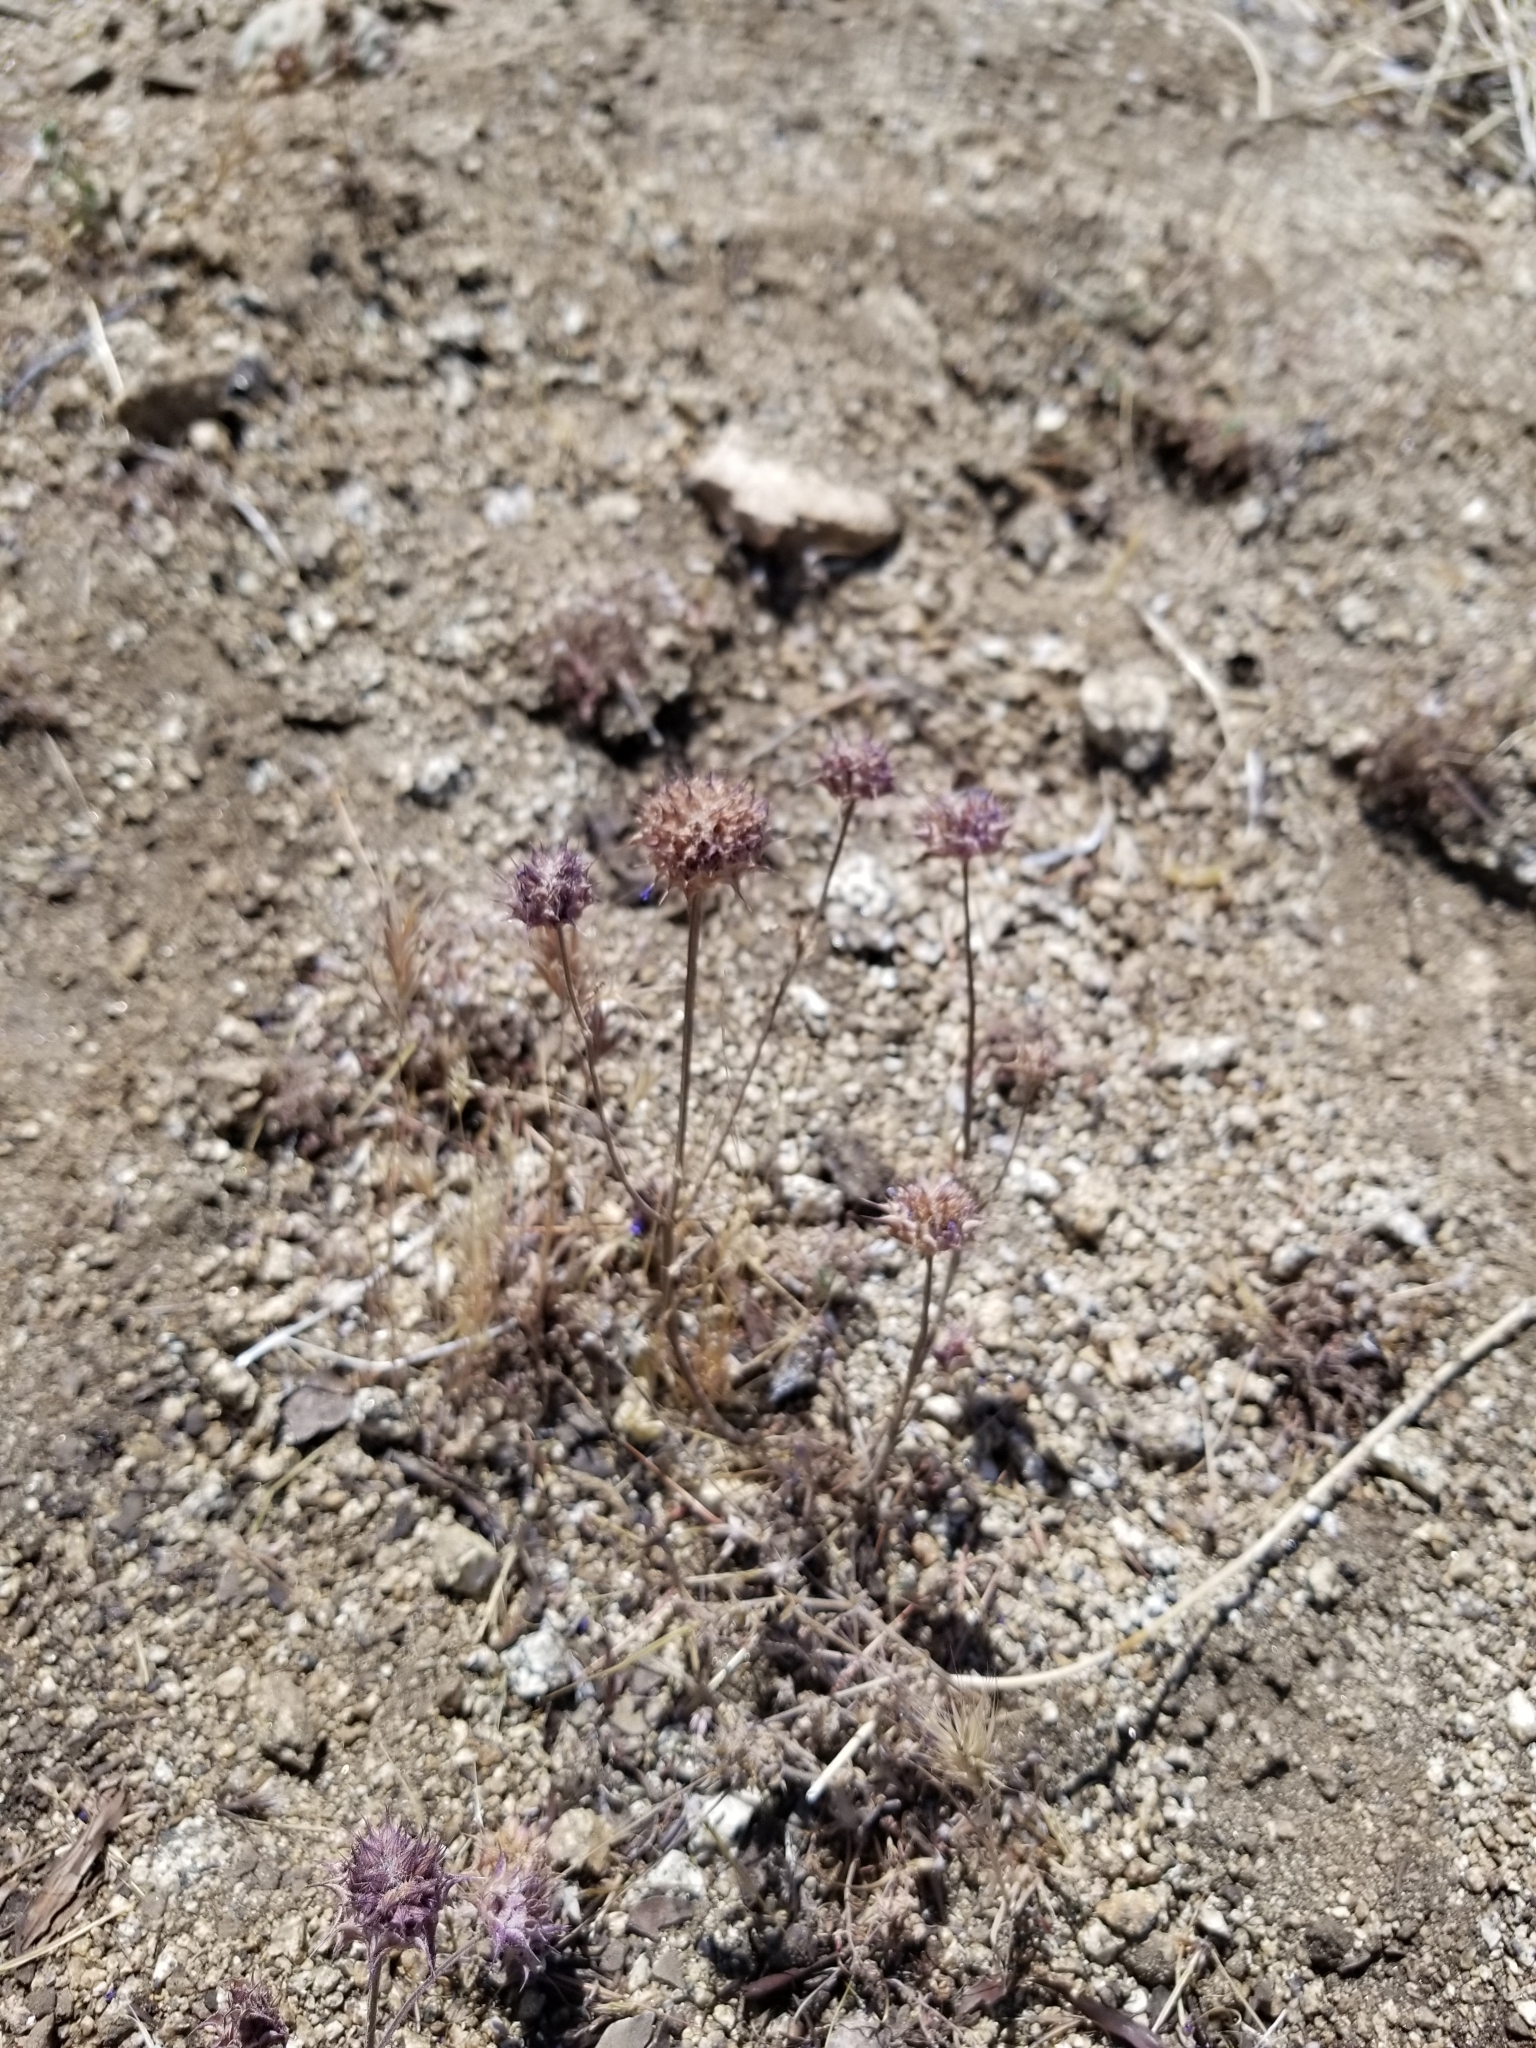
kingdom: Plantae
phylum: Tracheophyta
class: Magnoliopsida
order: Lamiales
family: Lamiaceae
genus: Salvia
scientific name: Salvia columbariae
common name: Chia
